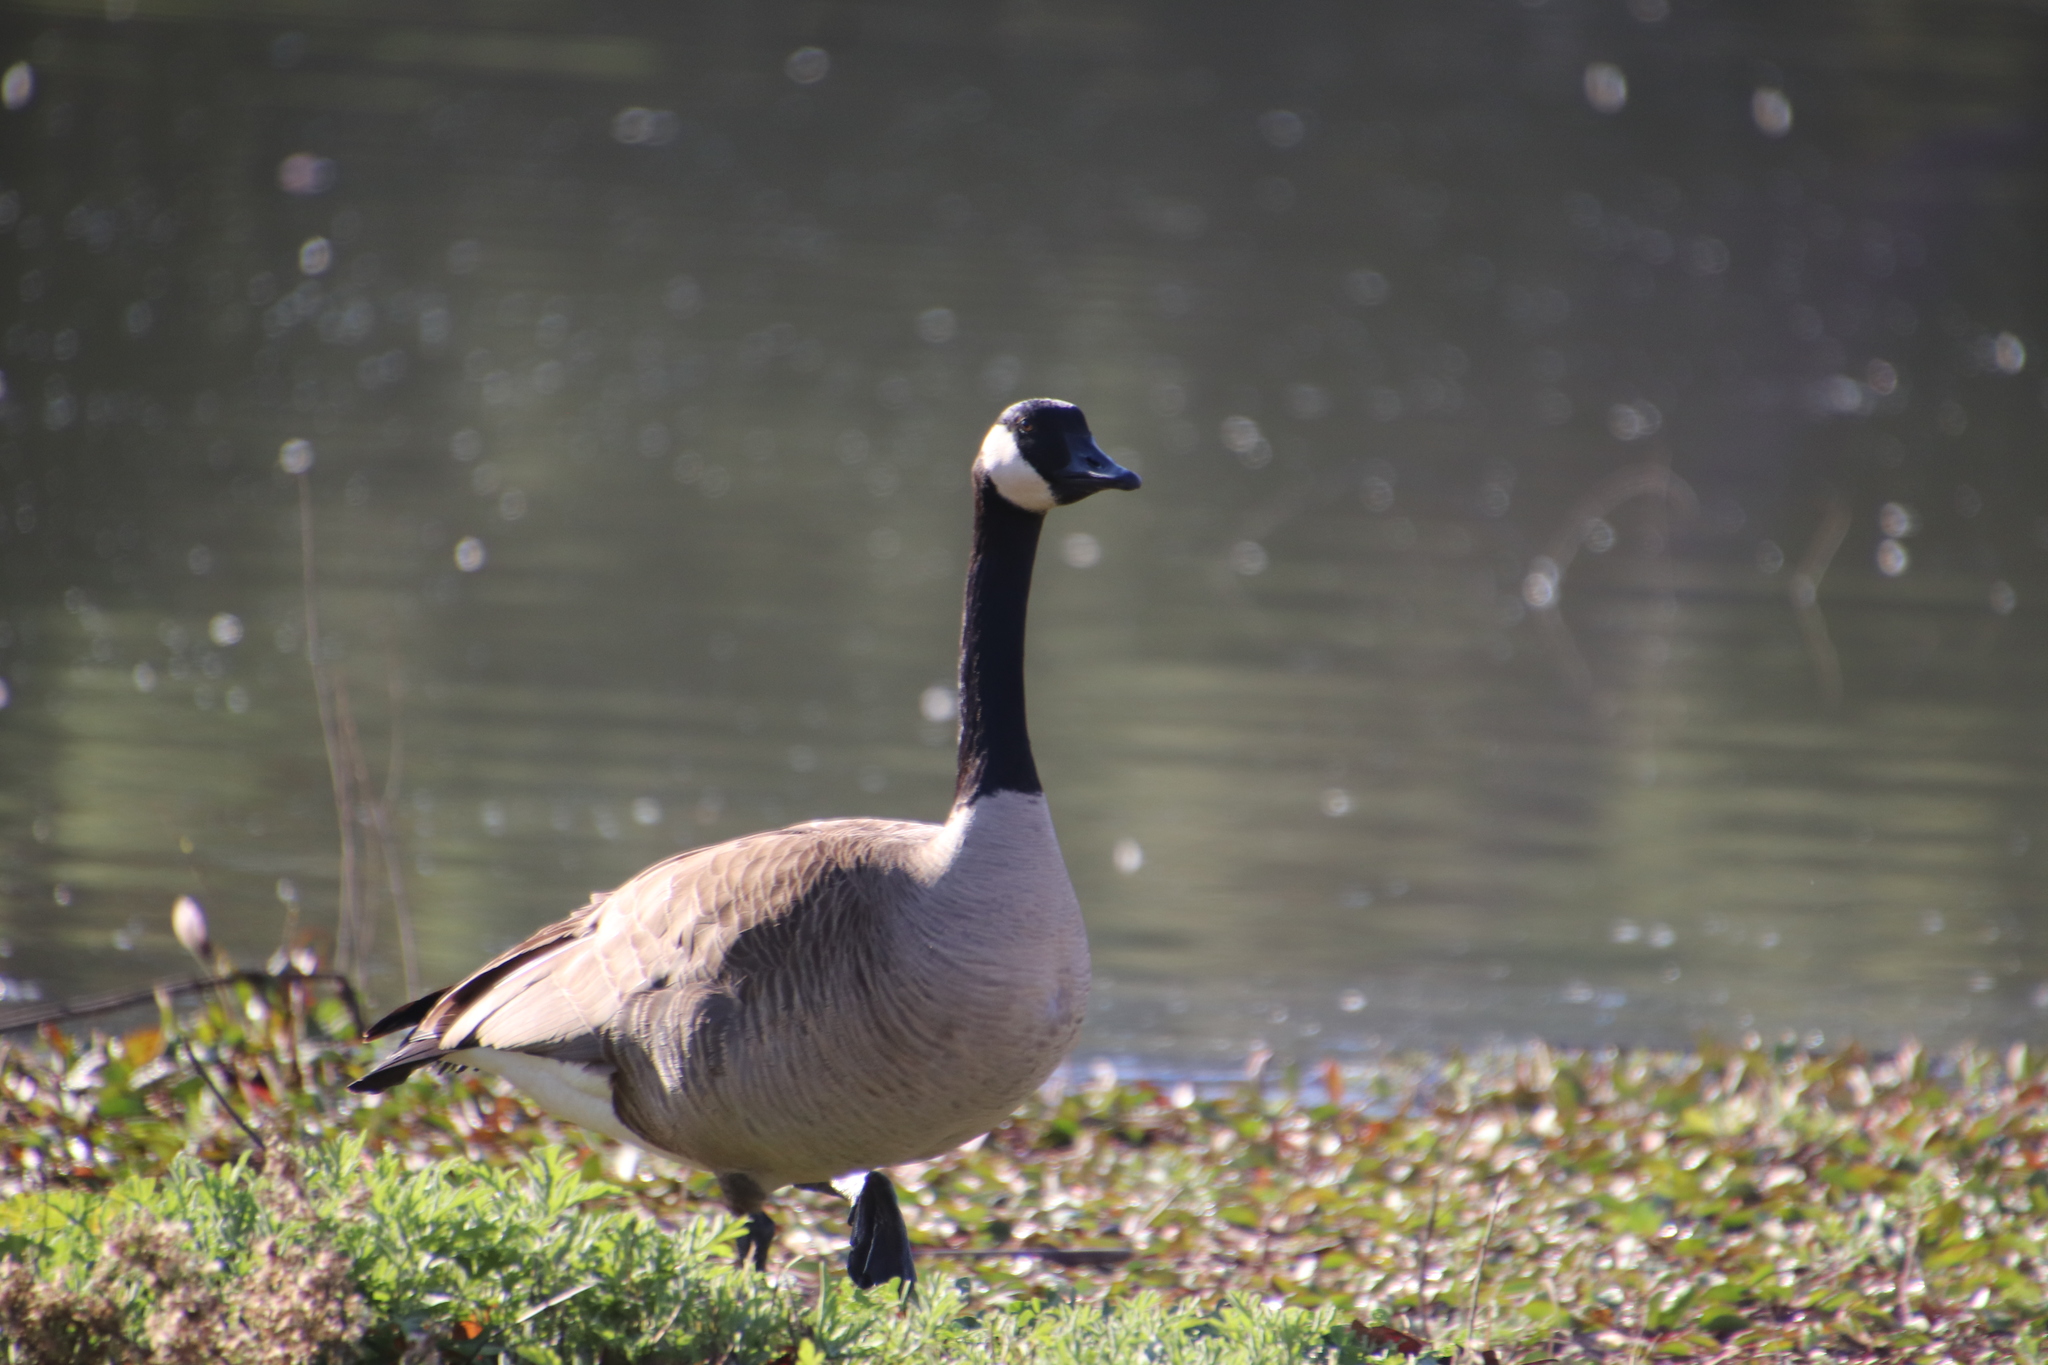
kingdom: Animalia
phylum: Chordata
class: Aves
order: Anseriformes
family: Anatidae
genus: Branta
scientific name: Branta canadensis
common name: Canada goose
